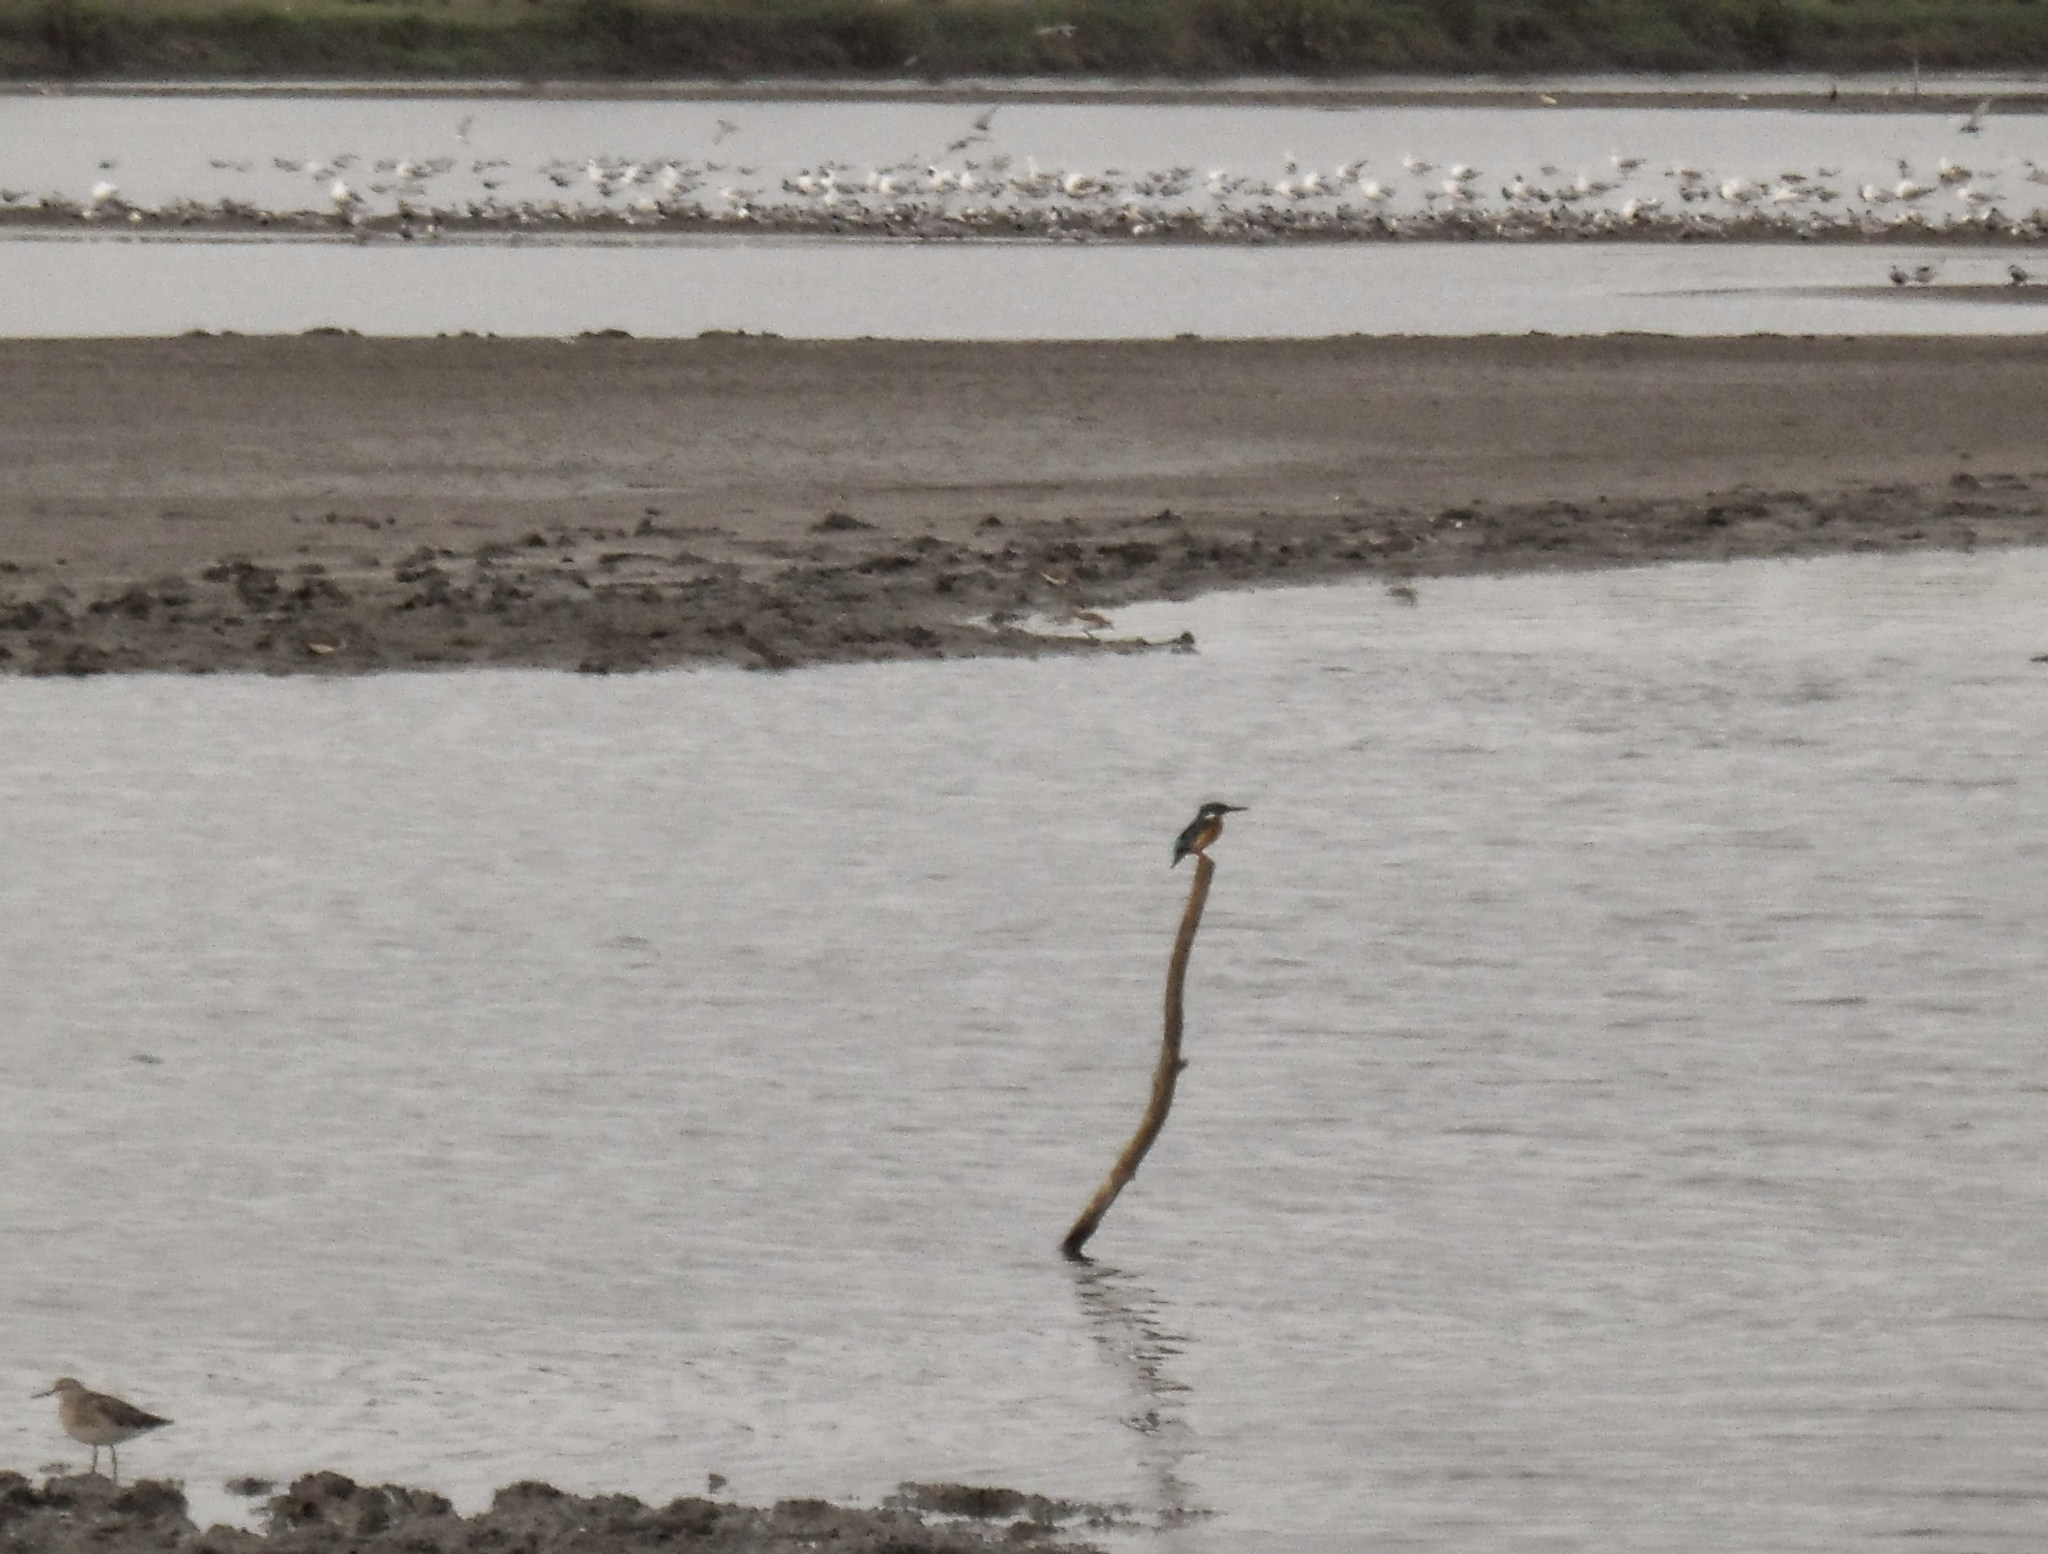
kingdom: Animalia
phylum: Chordata
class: Aves
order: Coraciiformes
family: Alcedinidae
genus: Alcedo
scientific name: Alcedo atthis
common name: Common kingfisher
